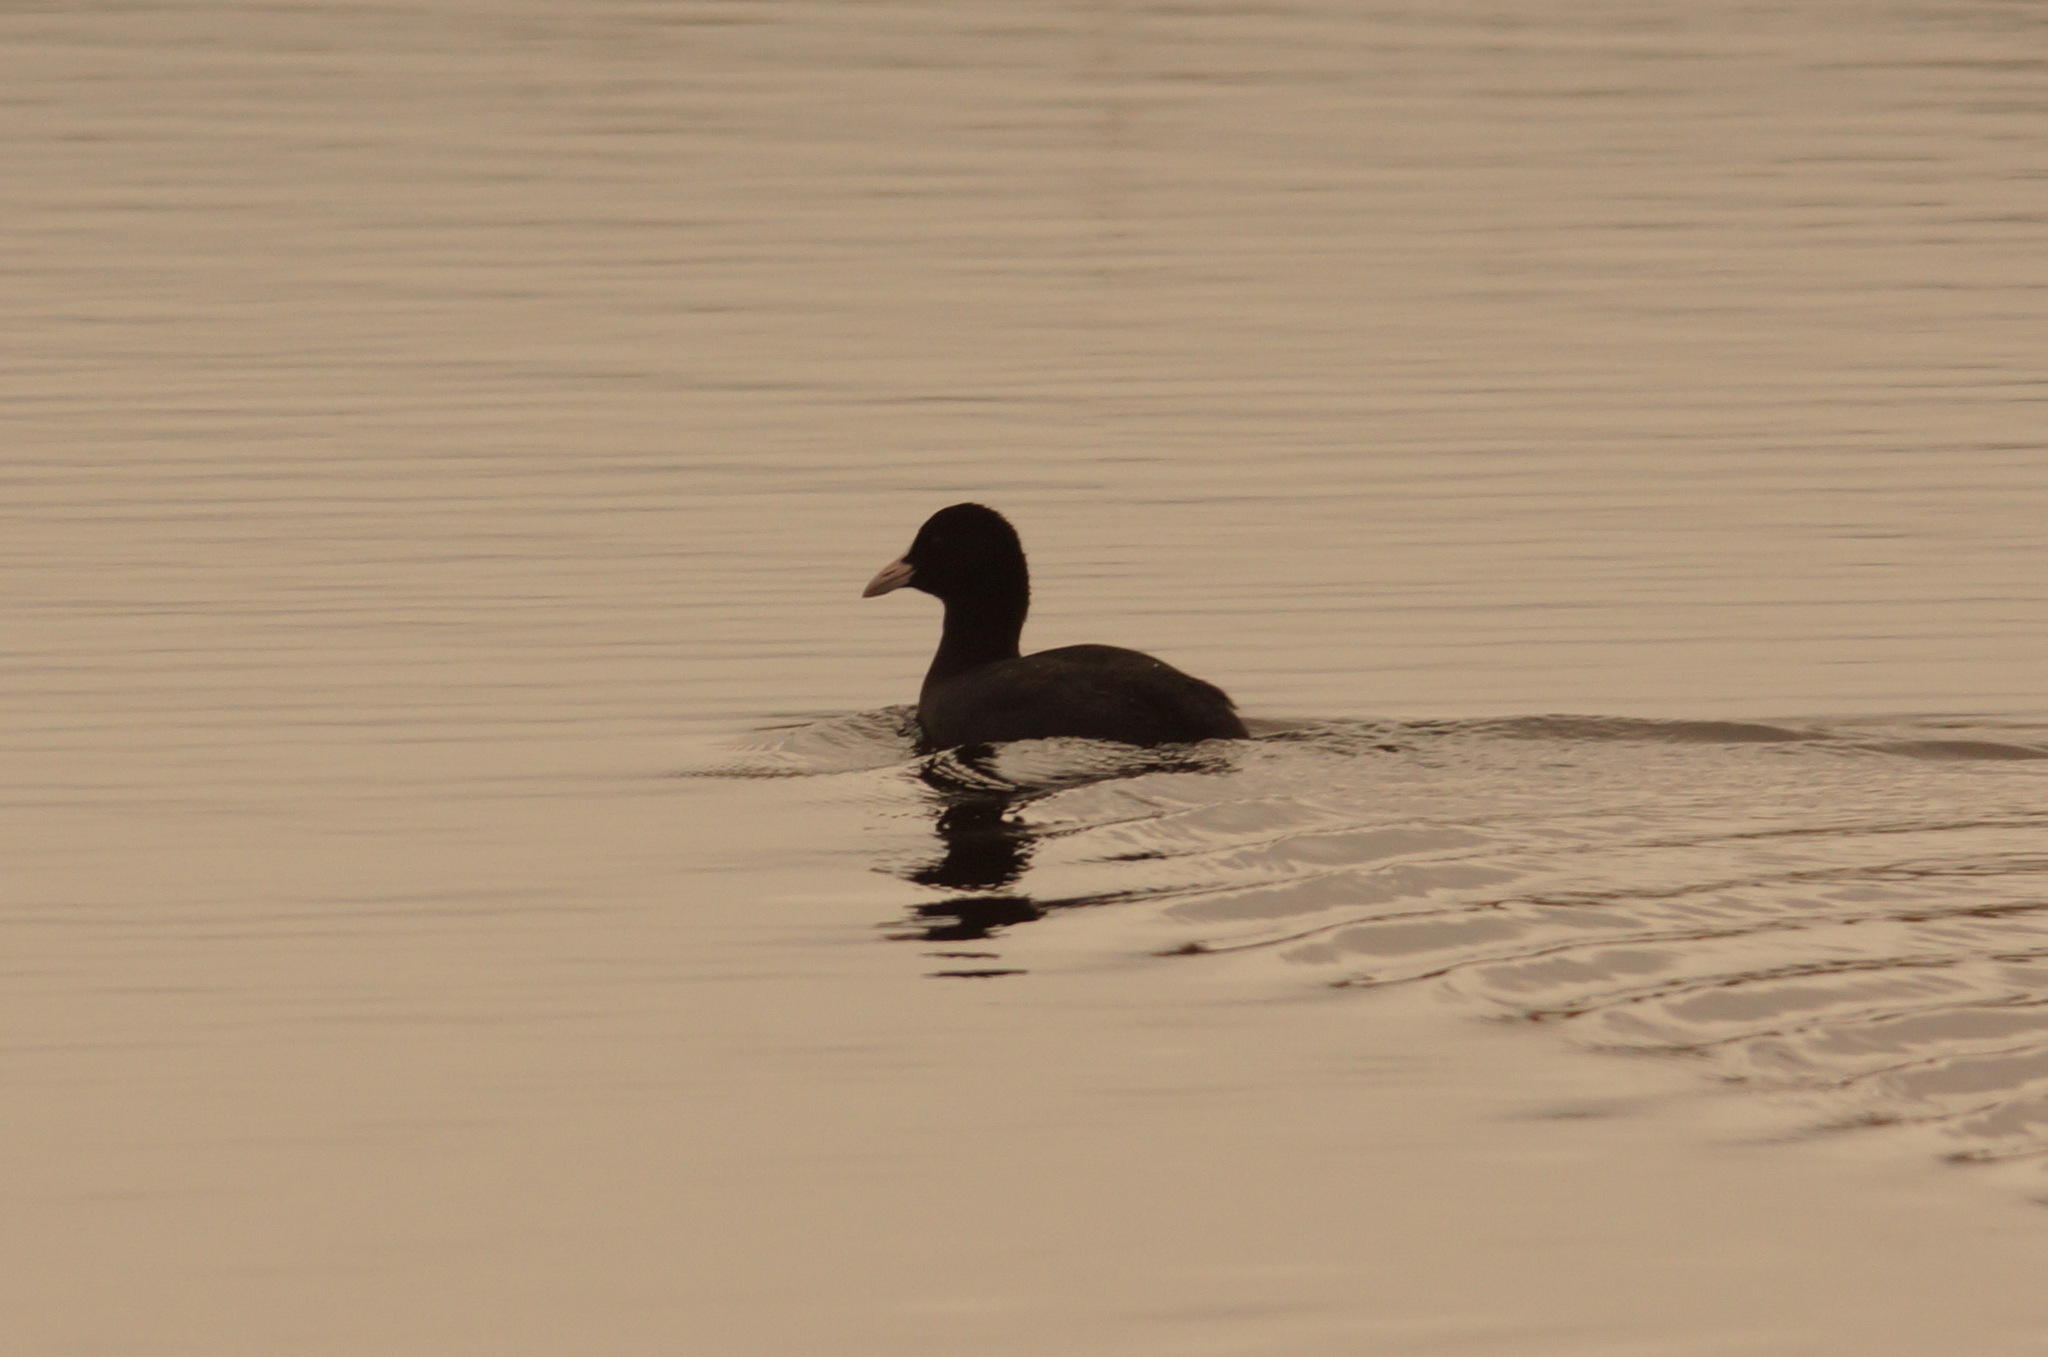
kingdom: Animalia
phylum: Chordata
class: Aves
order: Gruiformes
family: Rallidae
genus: Fulica
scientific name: Fulica atra
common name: Eurasian coot
